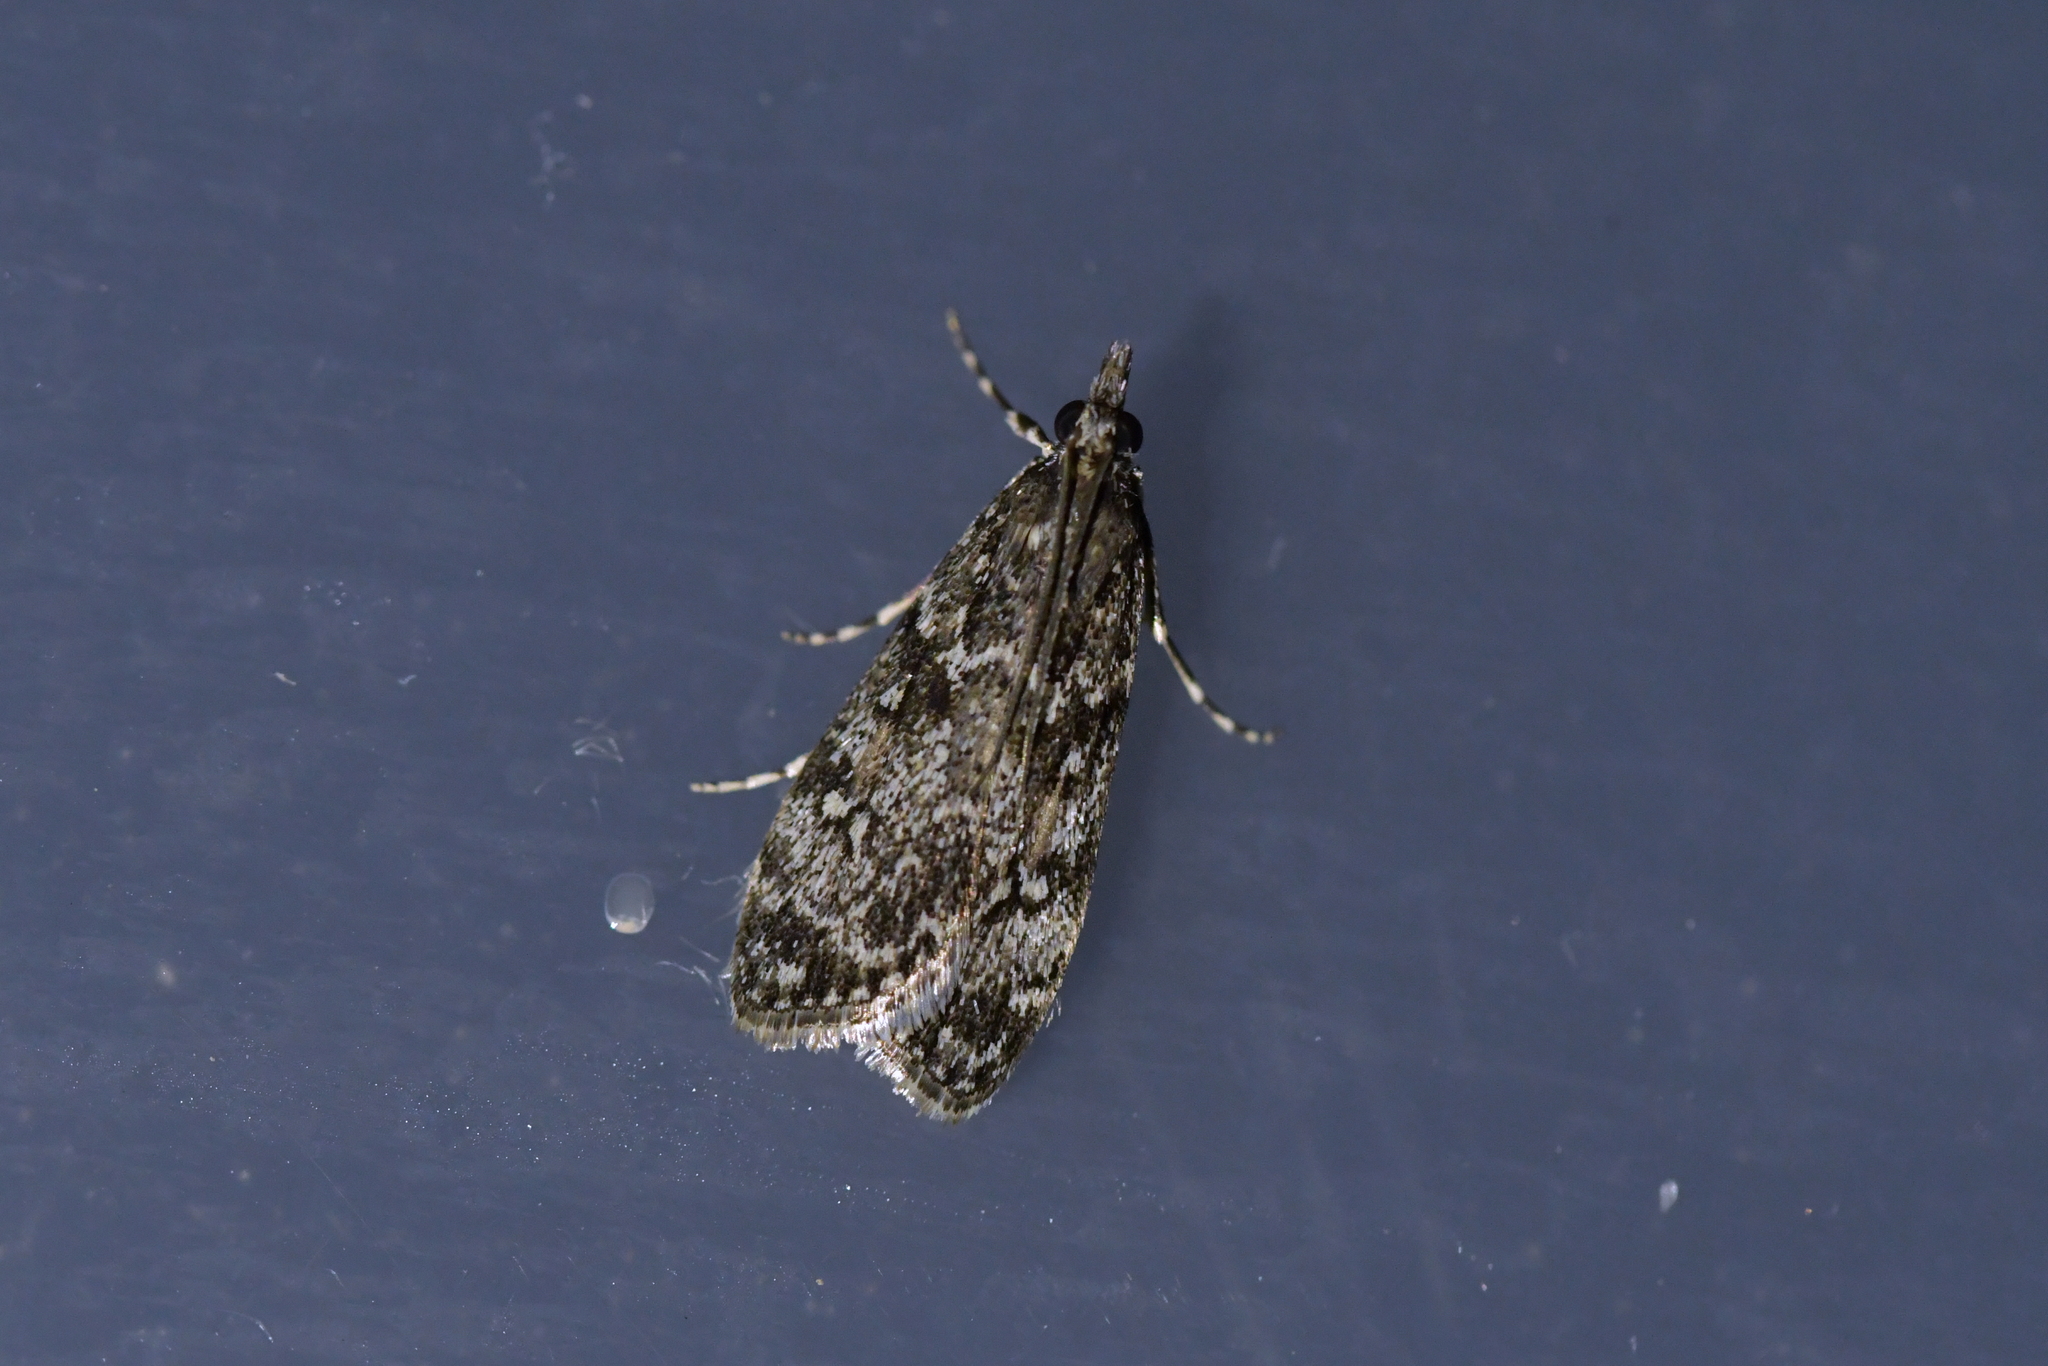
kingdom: Animalia
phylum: Arthropoda
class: Insecta
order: Lepidoptera
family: Crambidae
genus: Eudonia
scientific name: Eudonia philerga
